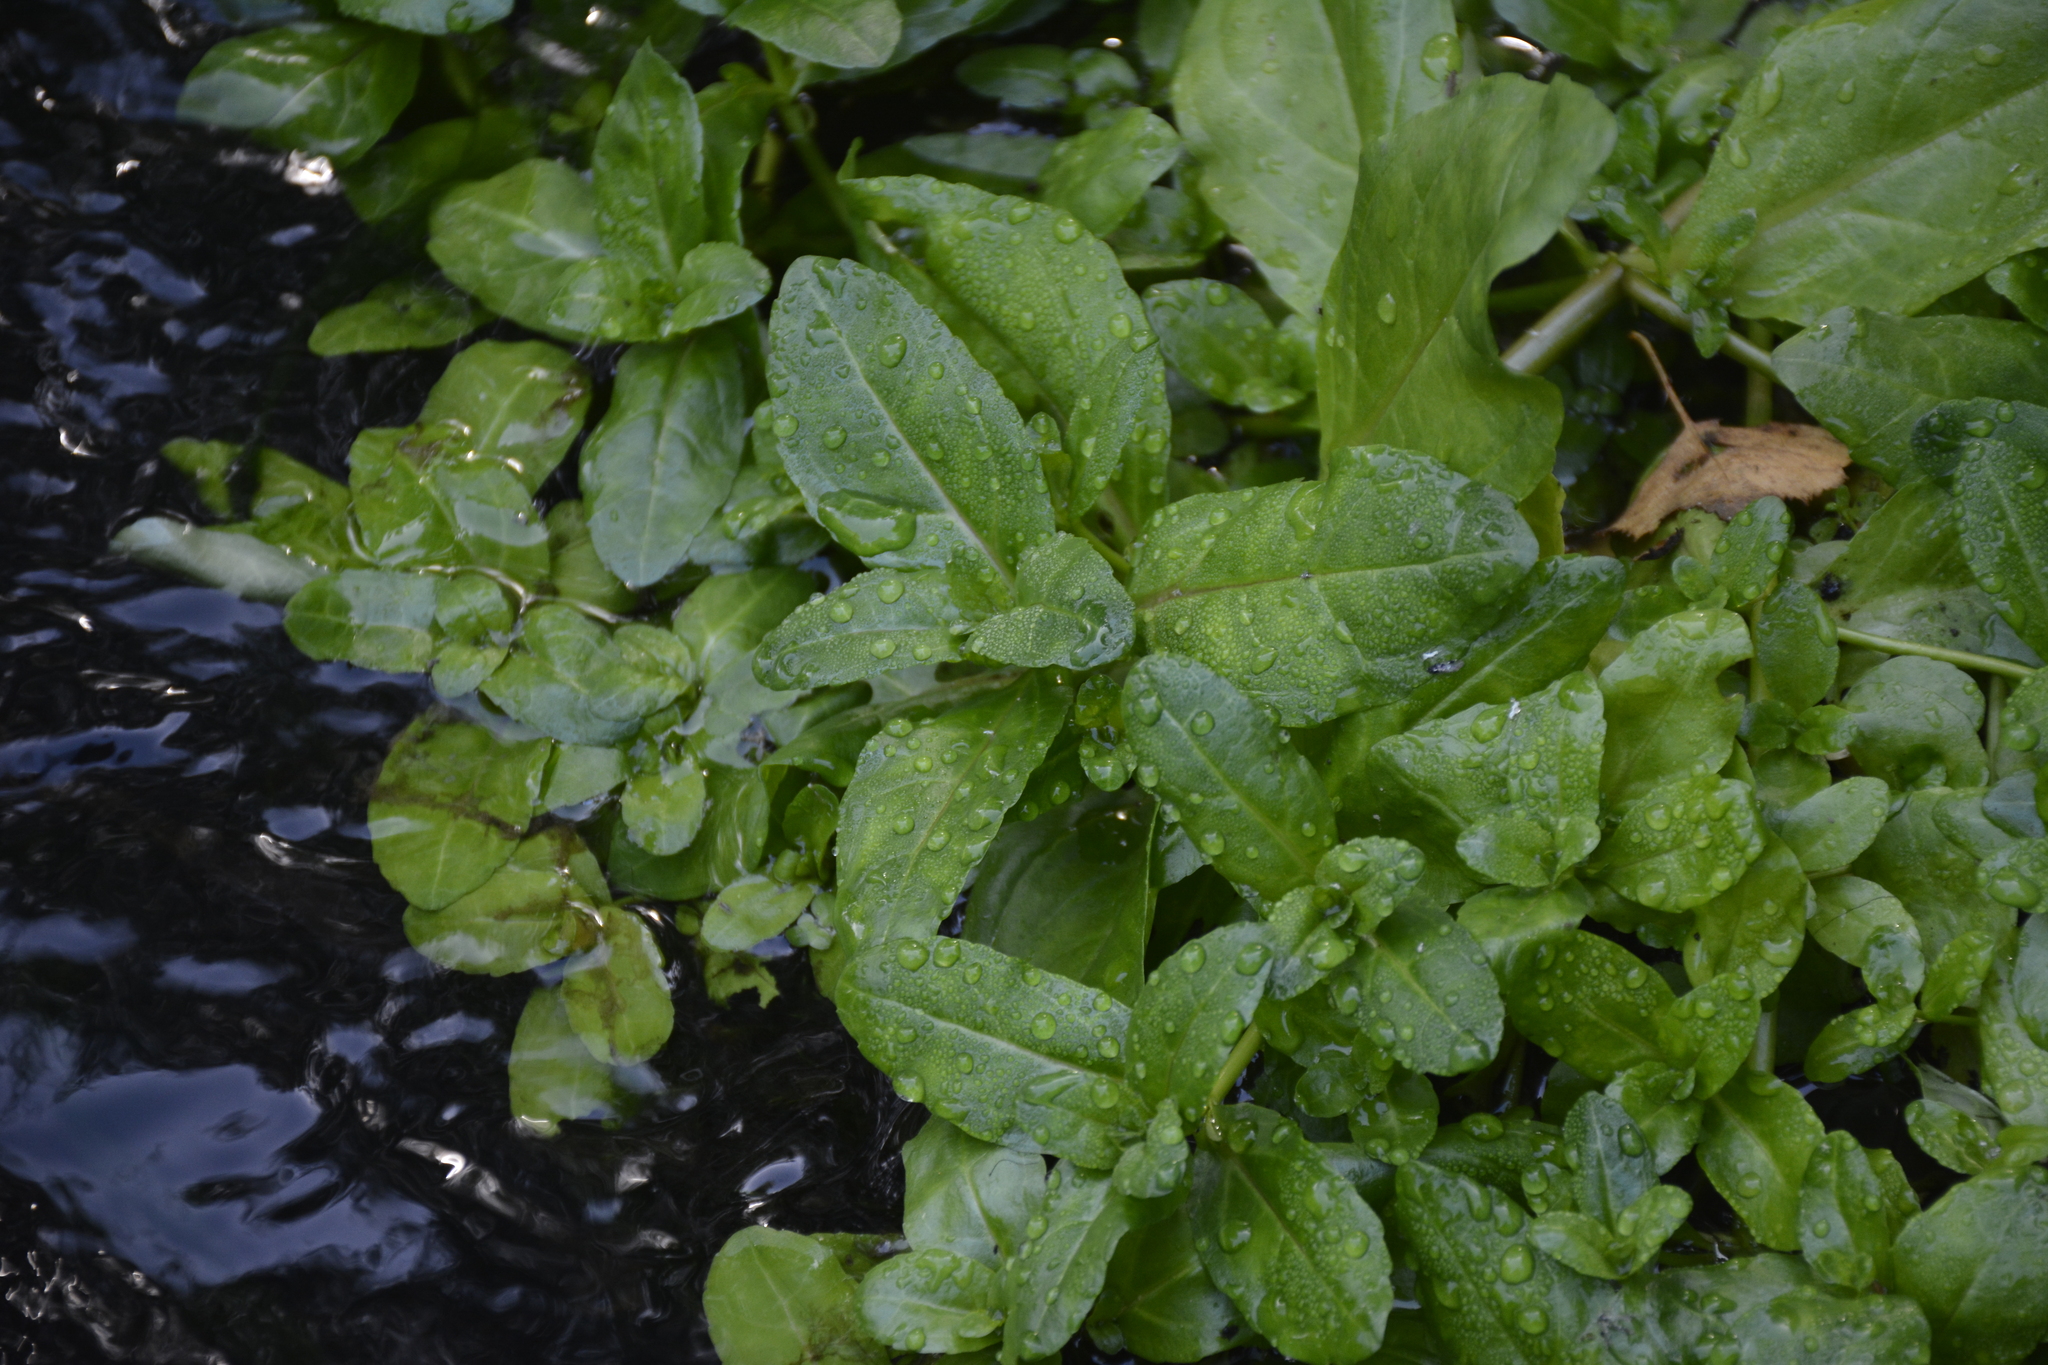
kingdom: Plantae
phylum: Tracheophyta
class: Magnoliopsida
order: Lamiales
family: Plantaginaceae
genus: Veronica
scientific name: Veronica beccabunga
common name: Brooklime
